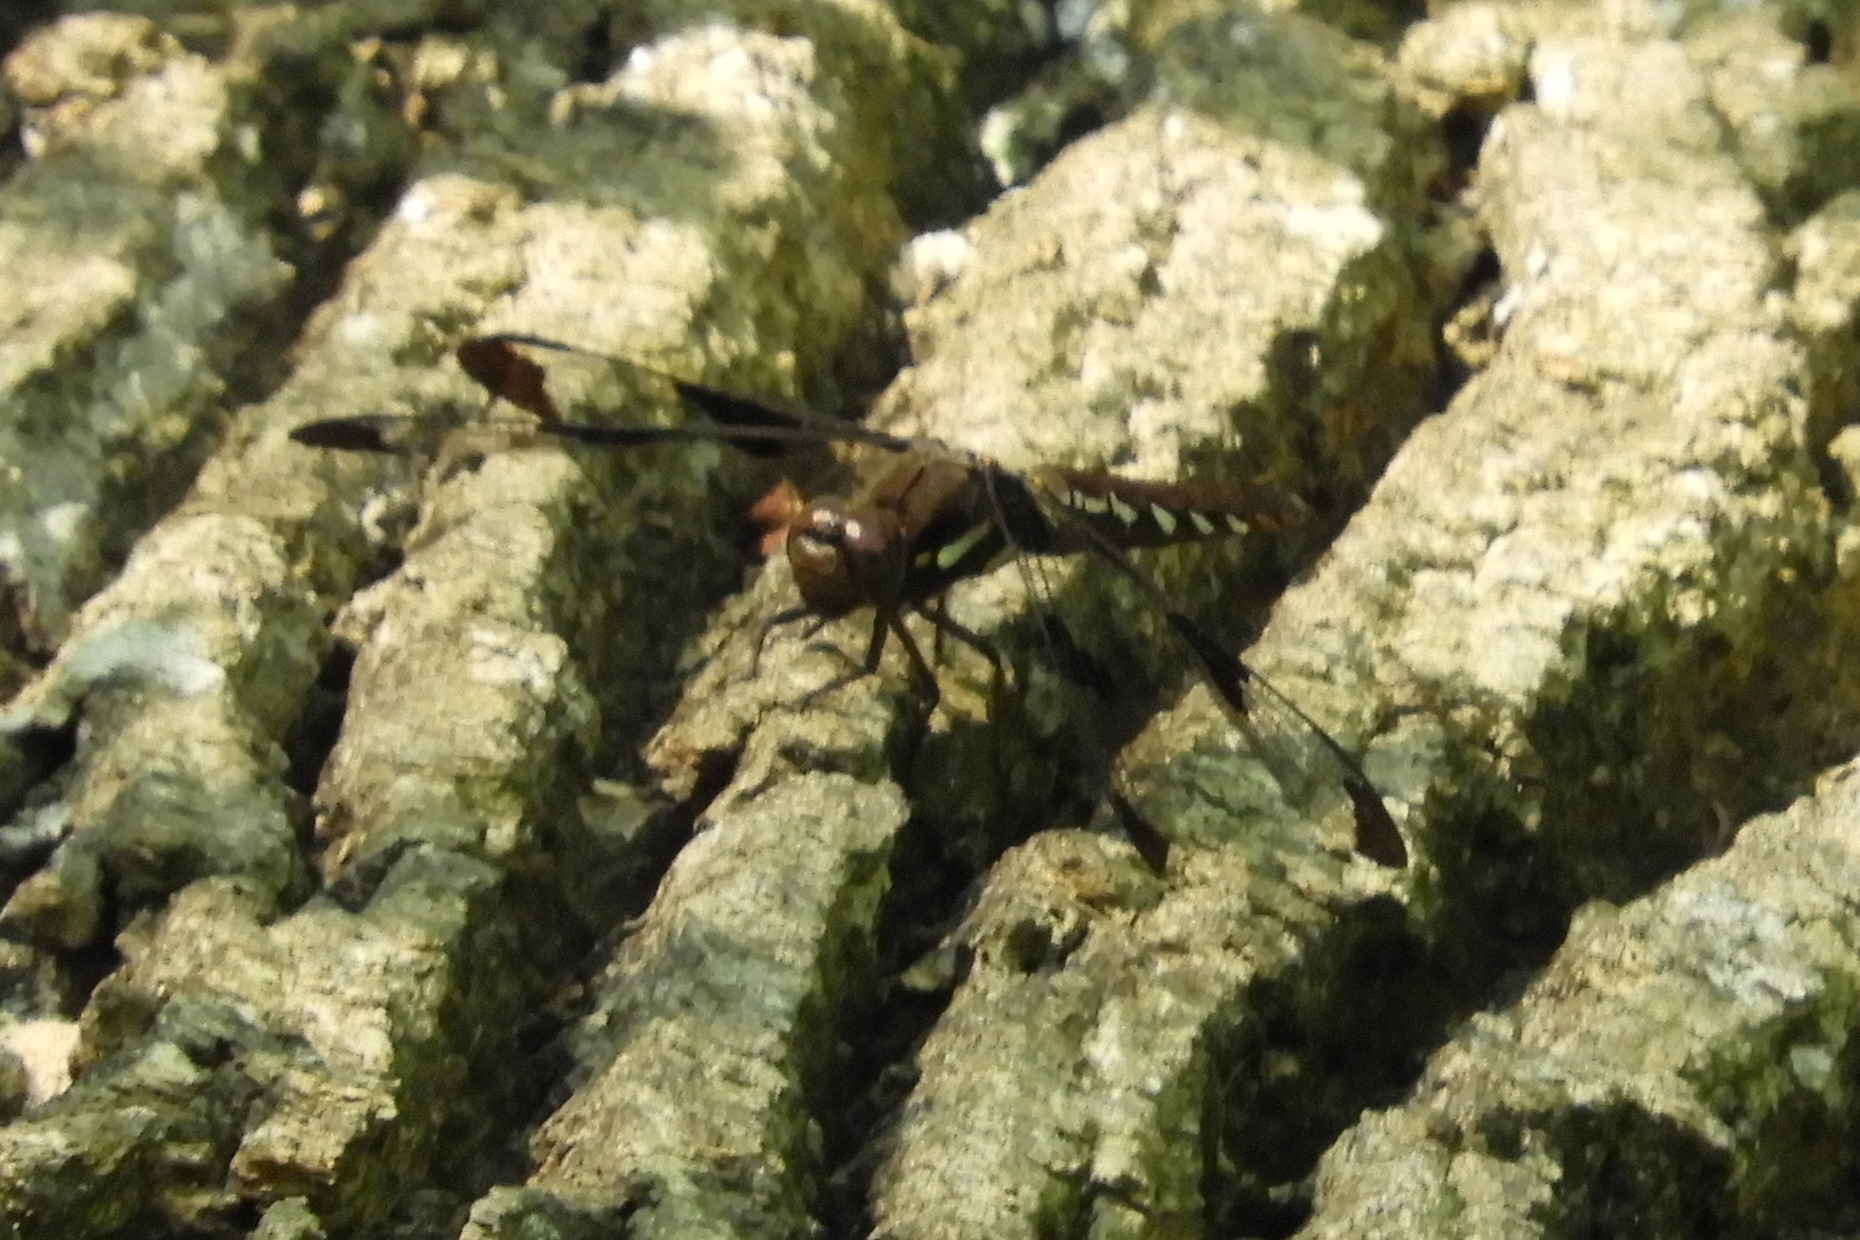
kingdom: Animalia
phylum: Arthropoda
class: Insecta
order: Odonata
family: Libellulidae
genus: Plathemis
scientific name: Plathemis lydia
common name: Common whitetail
